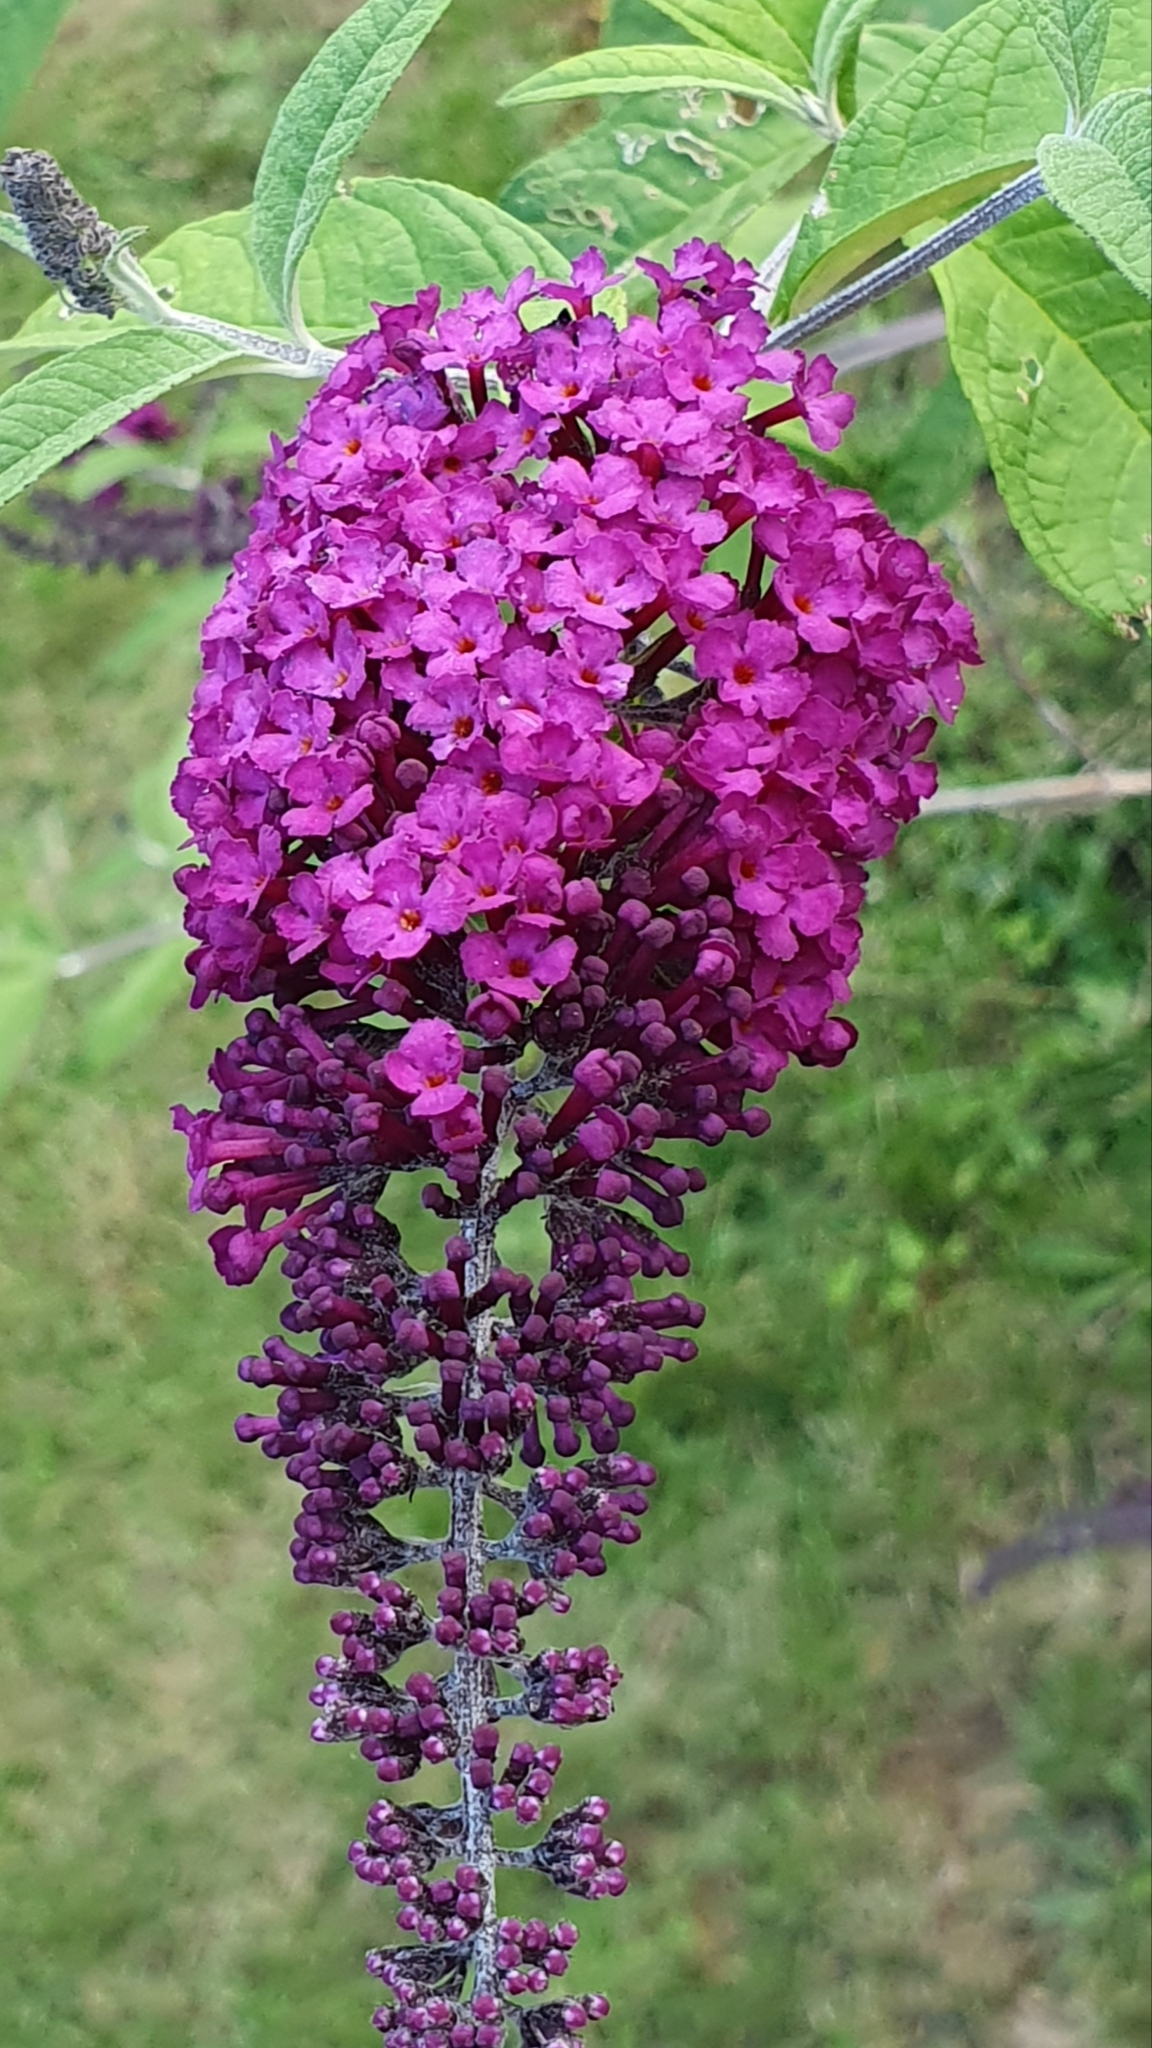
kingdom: Plantae
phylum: Tracheophyta
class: Magnoliopsida
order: Lamiales
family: Scrophulariaceae
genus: Buddleja
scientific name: Buddleja davidii
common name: Butterfly-bush
